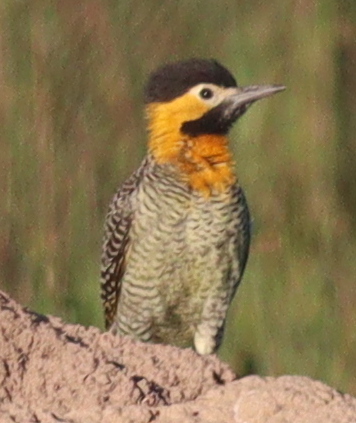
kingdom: Animalia
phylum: Chordata
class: Aves
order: Piciformes
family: Picidae
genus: Colaptes
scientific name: Colaptes campestris
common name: Campo flicker
